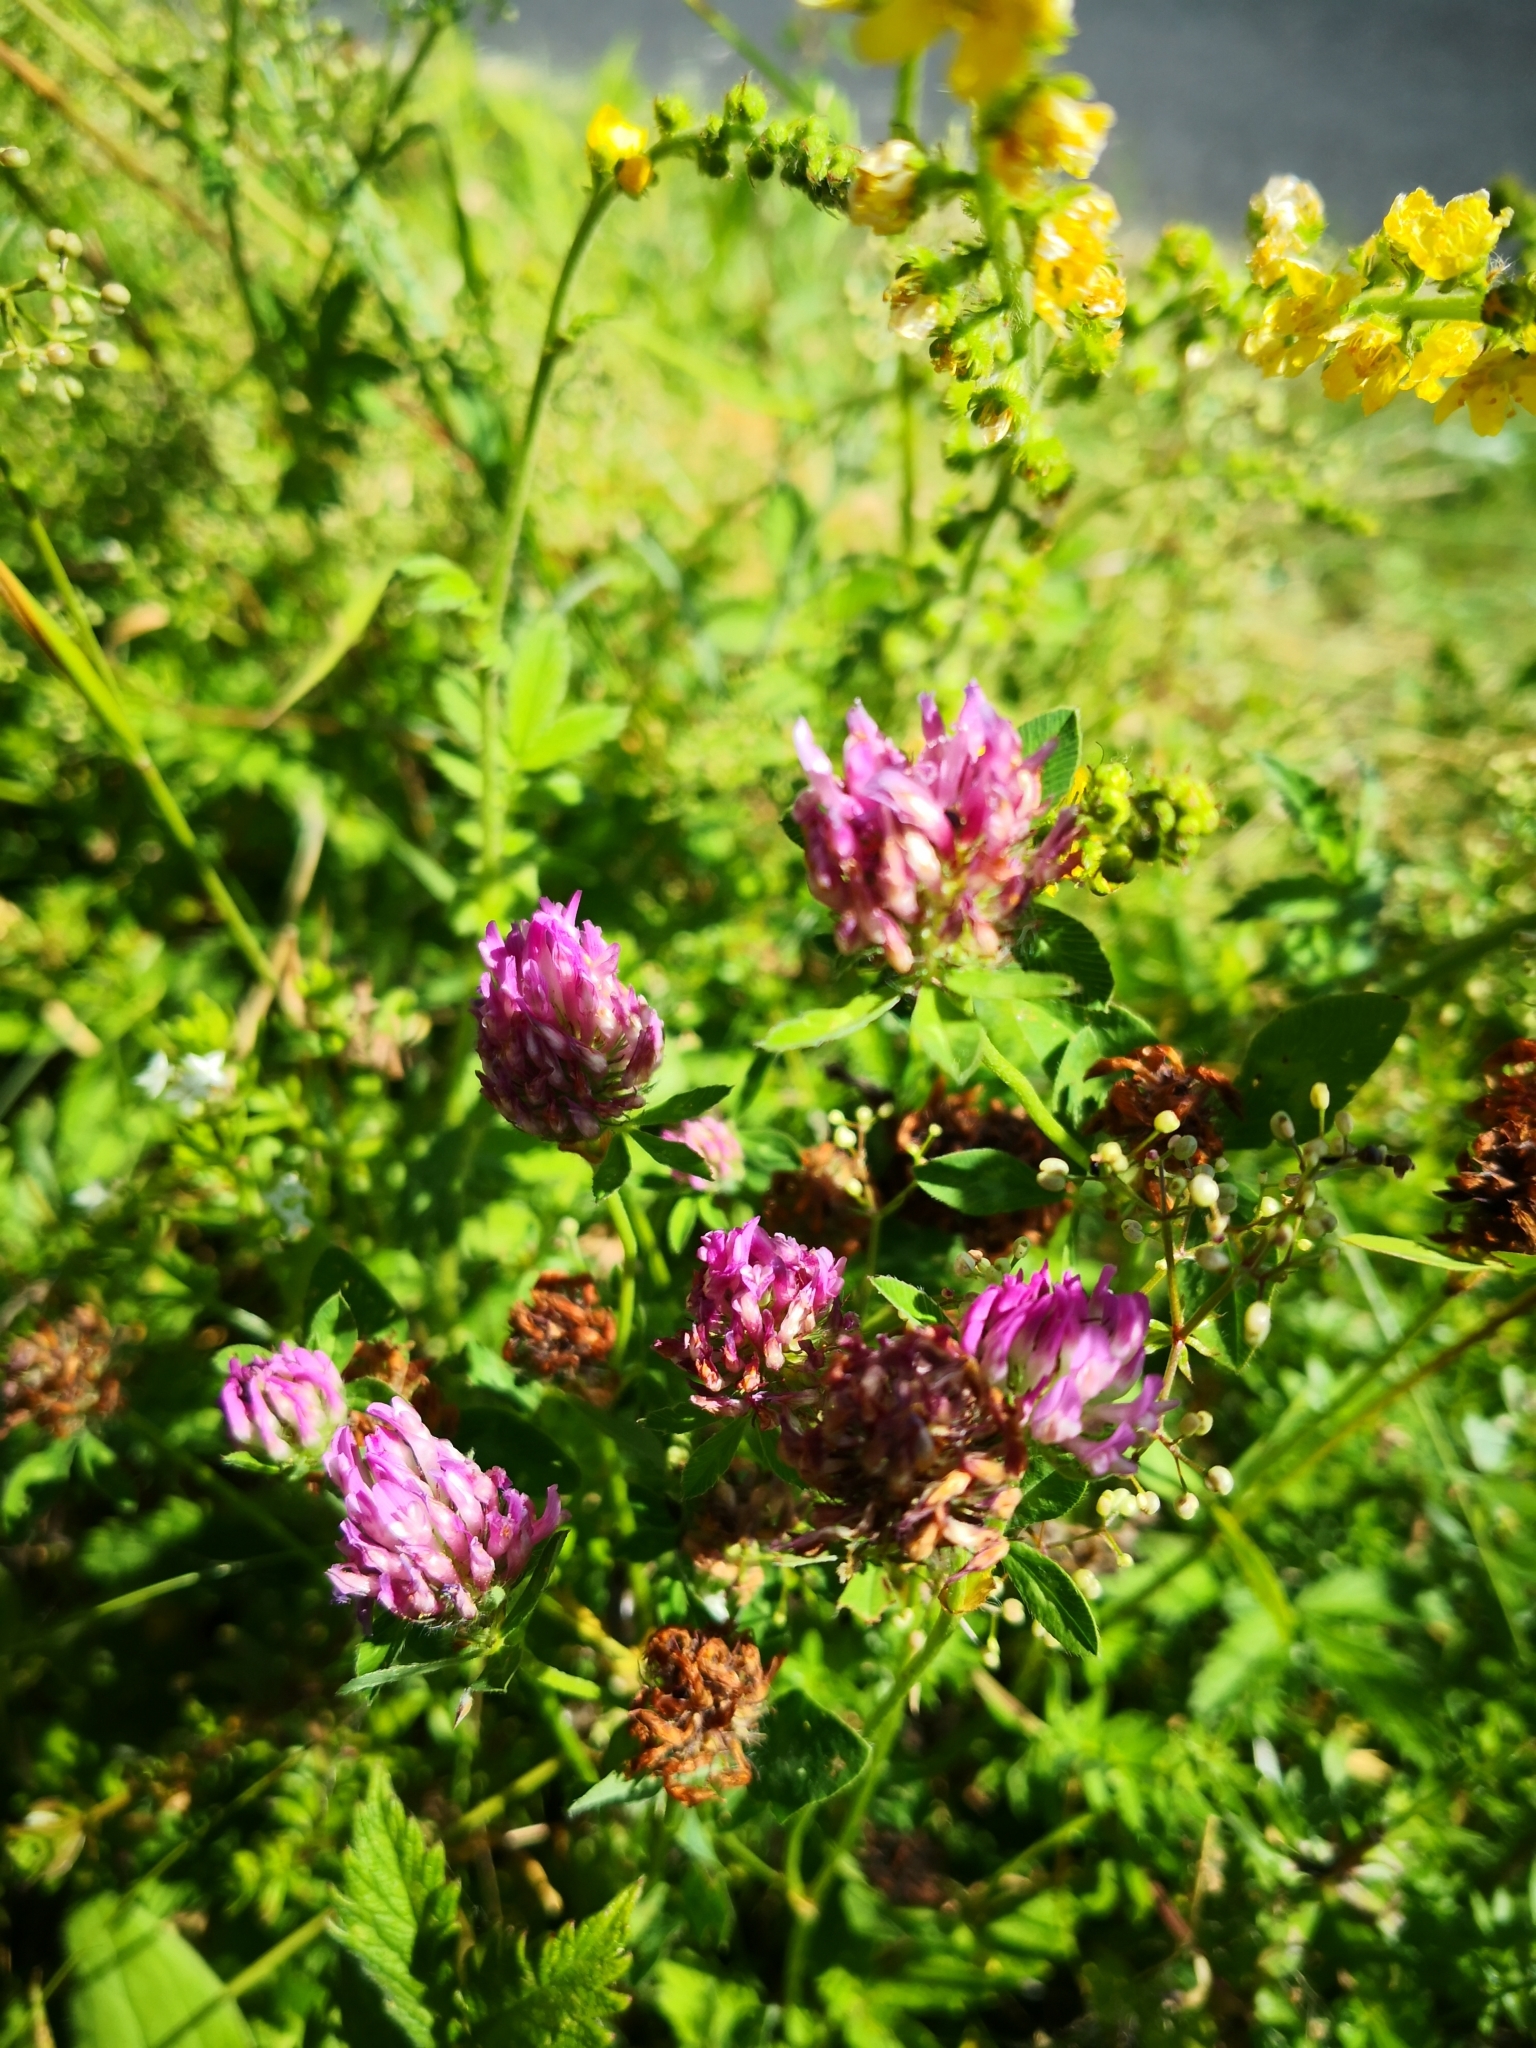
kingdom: Plantae
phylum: Tracheophyta
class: Magnoliopsida
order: Fabales
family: Fabaceae
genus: Trifolium
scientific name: Trifolium pratense
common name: Red clover
